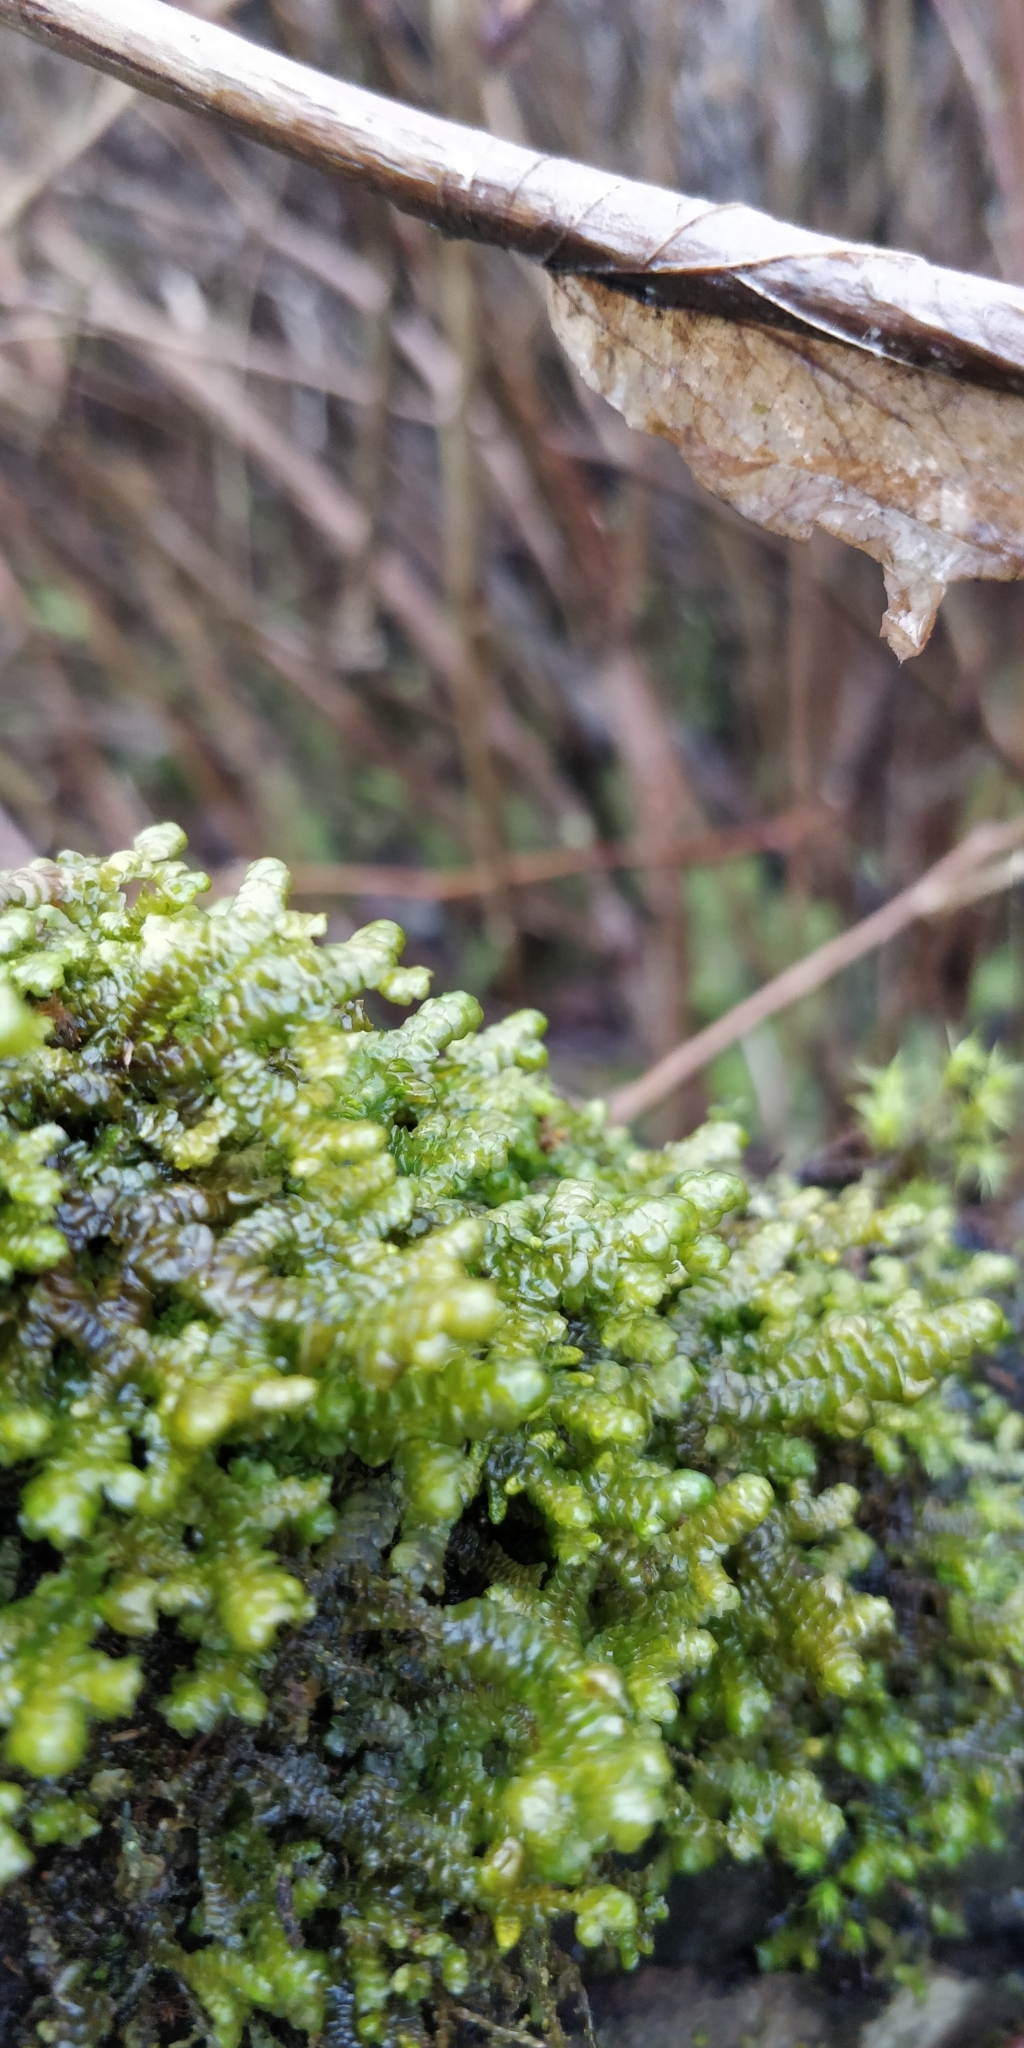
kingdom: Plantae
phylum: Marchantiophyta
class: Jungermanniopsida
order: Porellales
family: Porellaceae
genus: Porella
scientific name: Porella navicularis
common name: Tree ruffle liverwort
